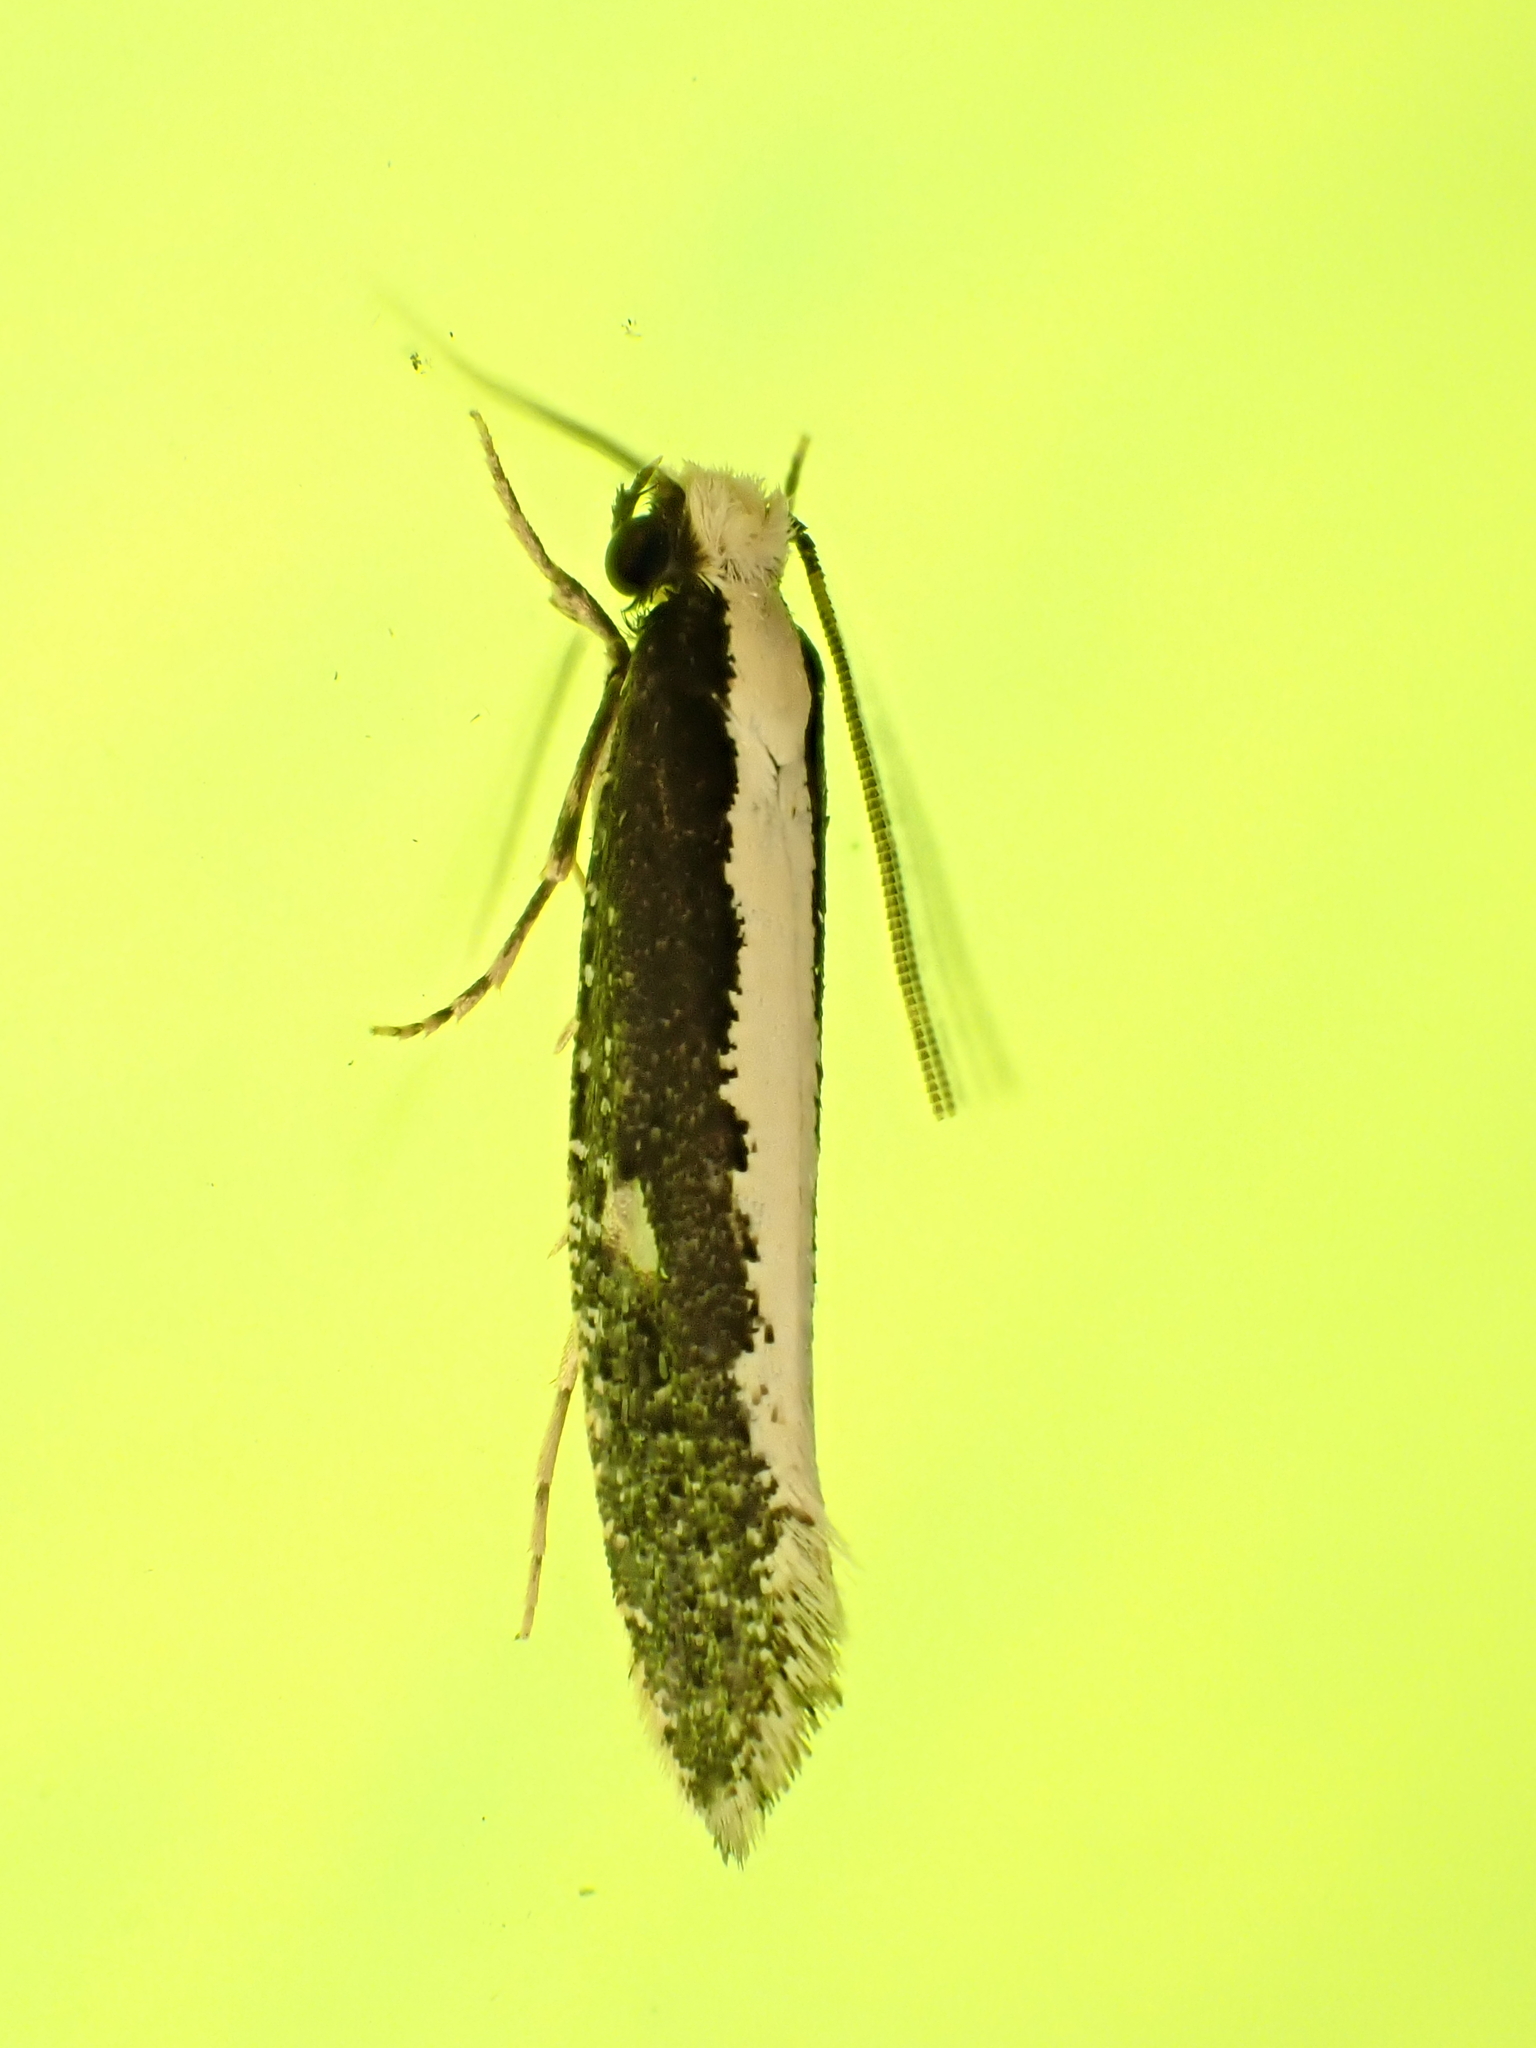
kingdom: Animalia
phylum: Arthropoda
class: Insecta
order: Lepidoptera
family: Tineidae
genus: Monopis
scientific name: Monopis ethelella
